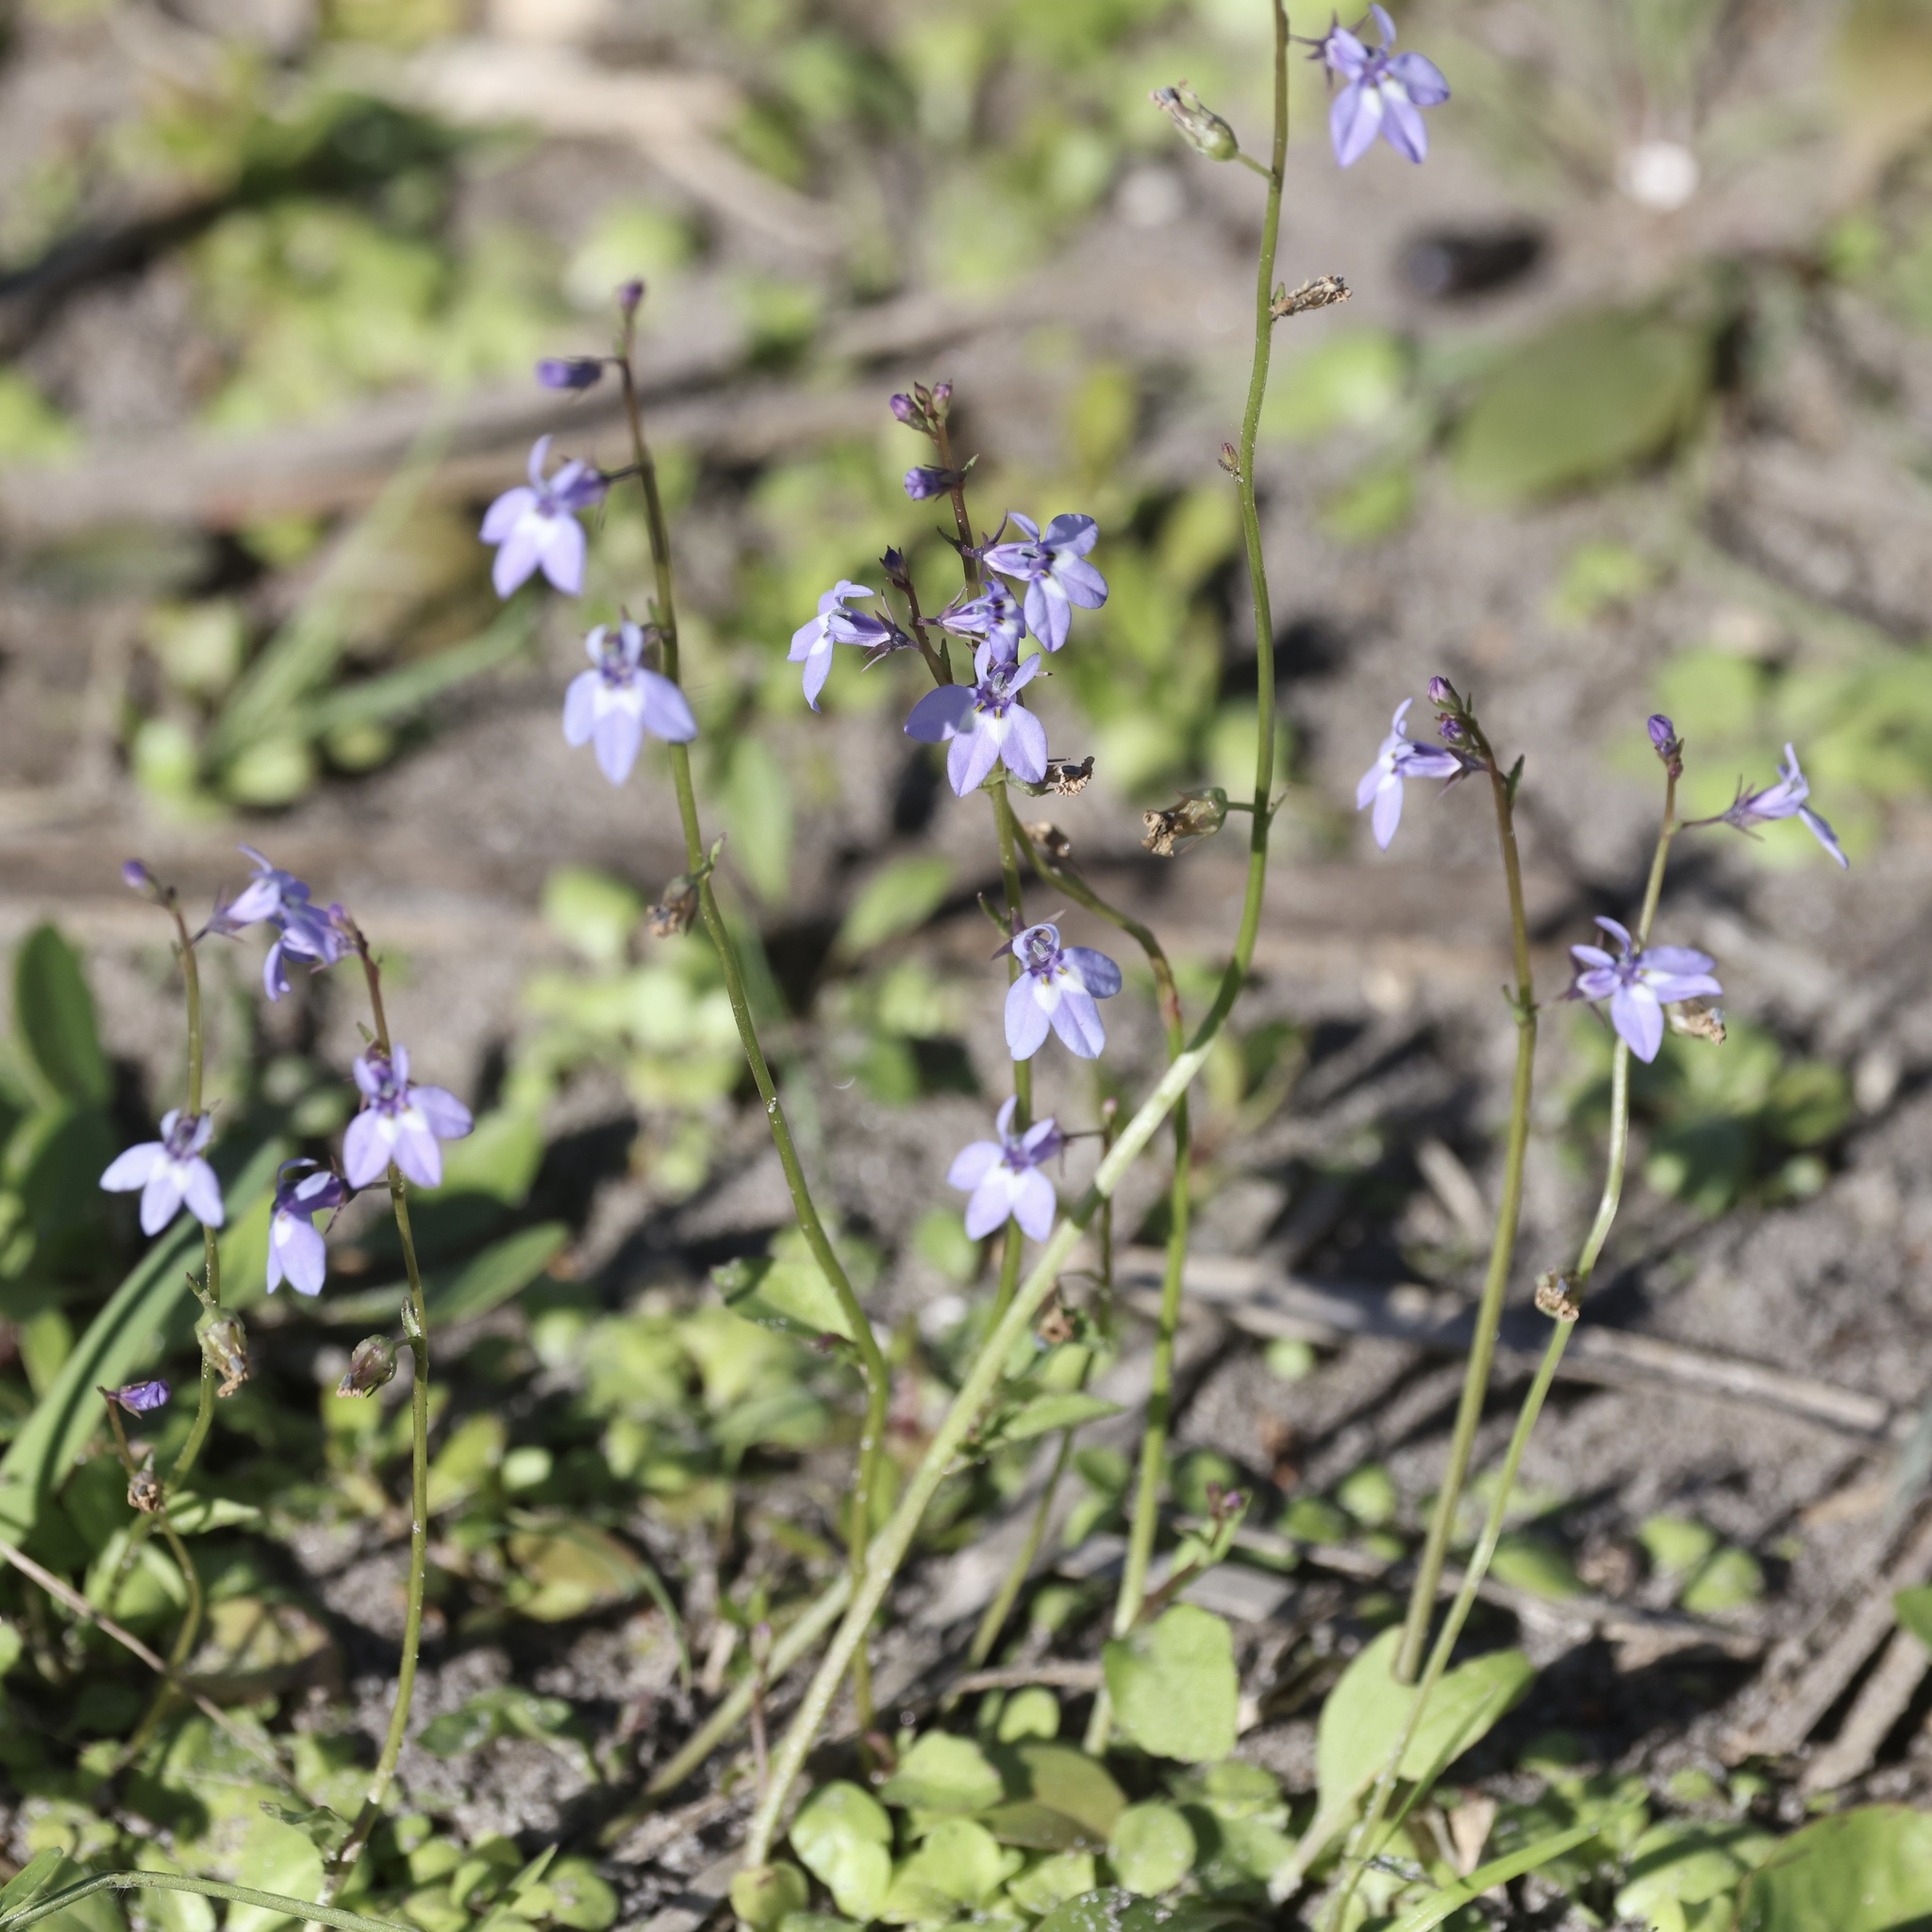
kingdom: Plantae
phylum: Tracheophyta
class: Magnoliopsida
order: Asterales
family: Campanulaceae
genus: Lobelia
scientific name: Lobelia feayana
